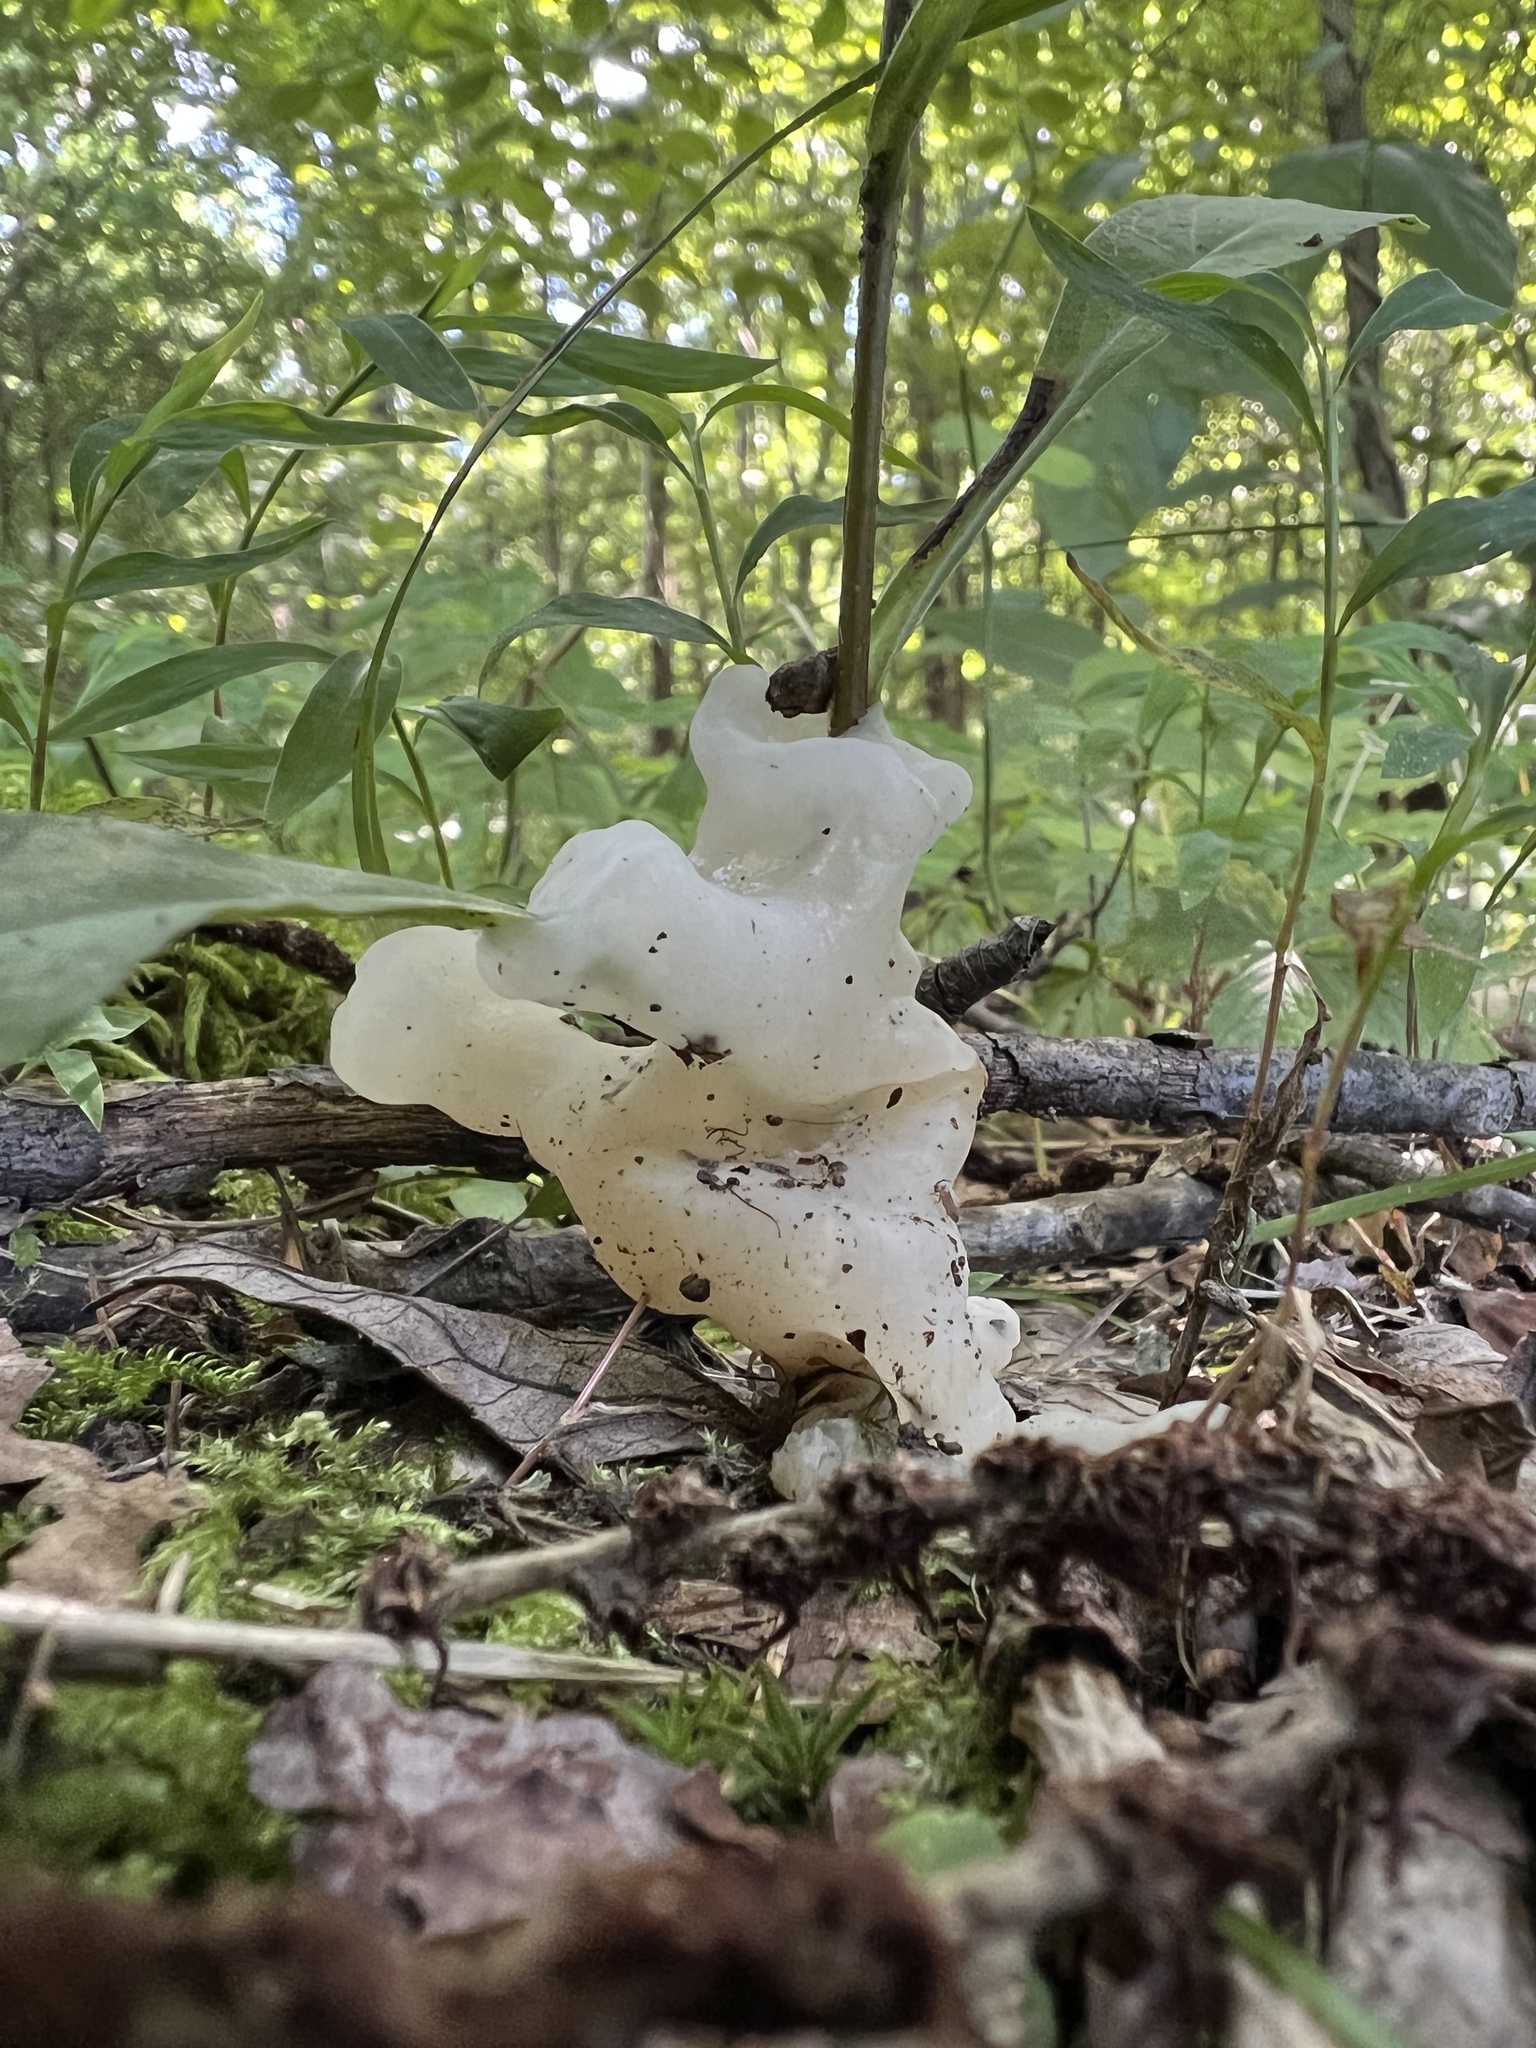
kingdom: Fungi
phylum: Basidiomycota
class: Agaricomycetes
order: Sebacinales
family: Sebacinaceae
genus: Helvellosebacina
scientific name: Helvellosebacina concrescens
